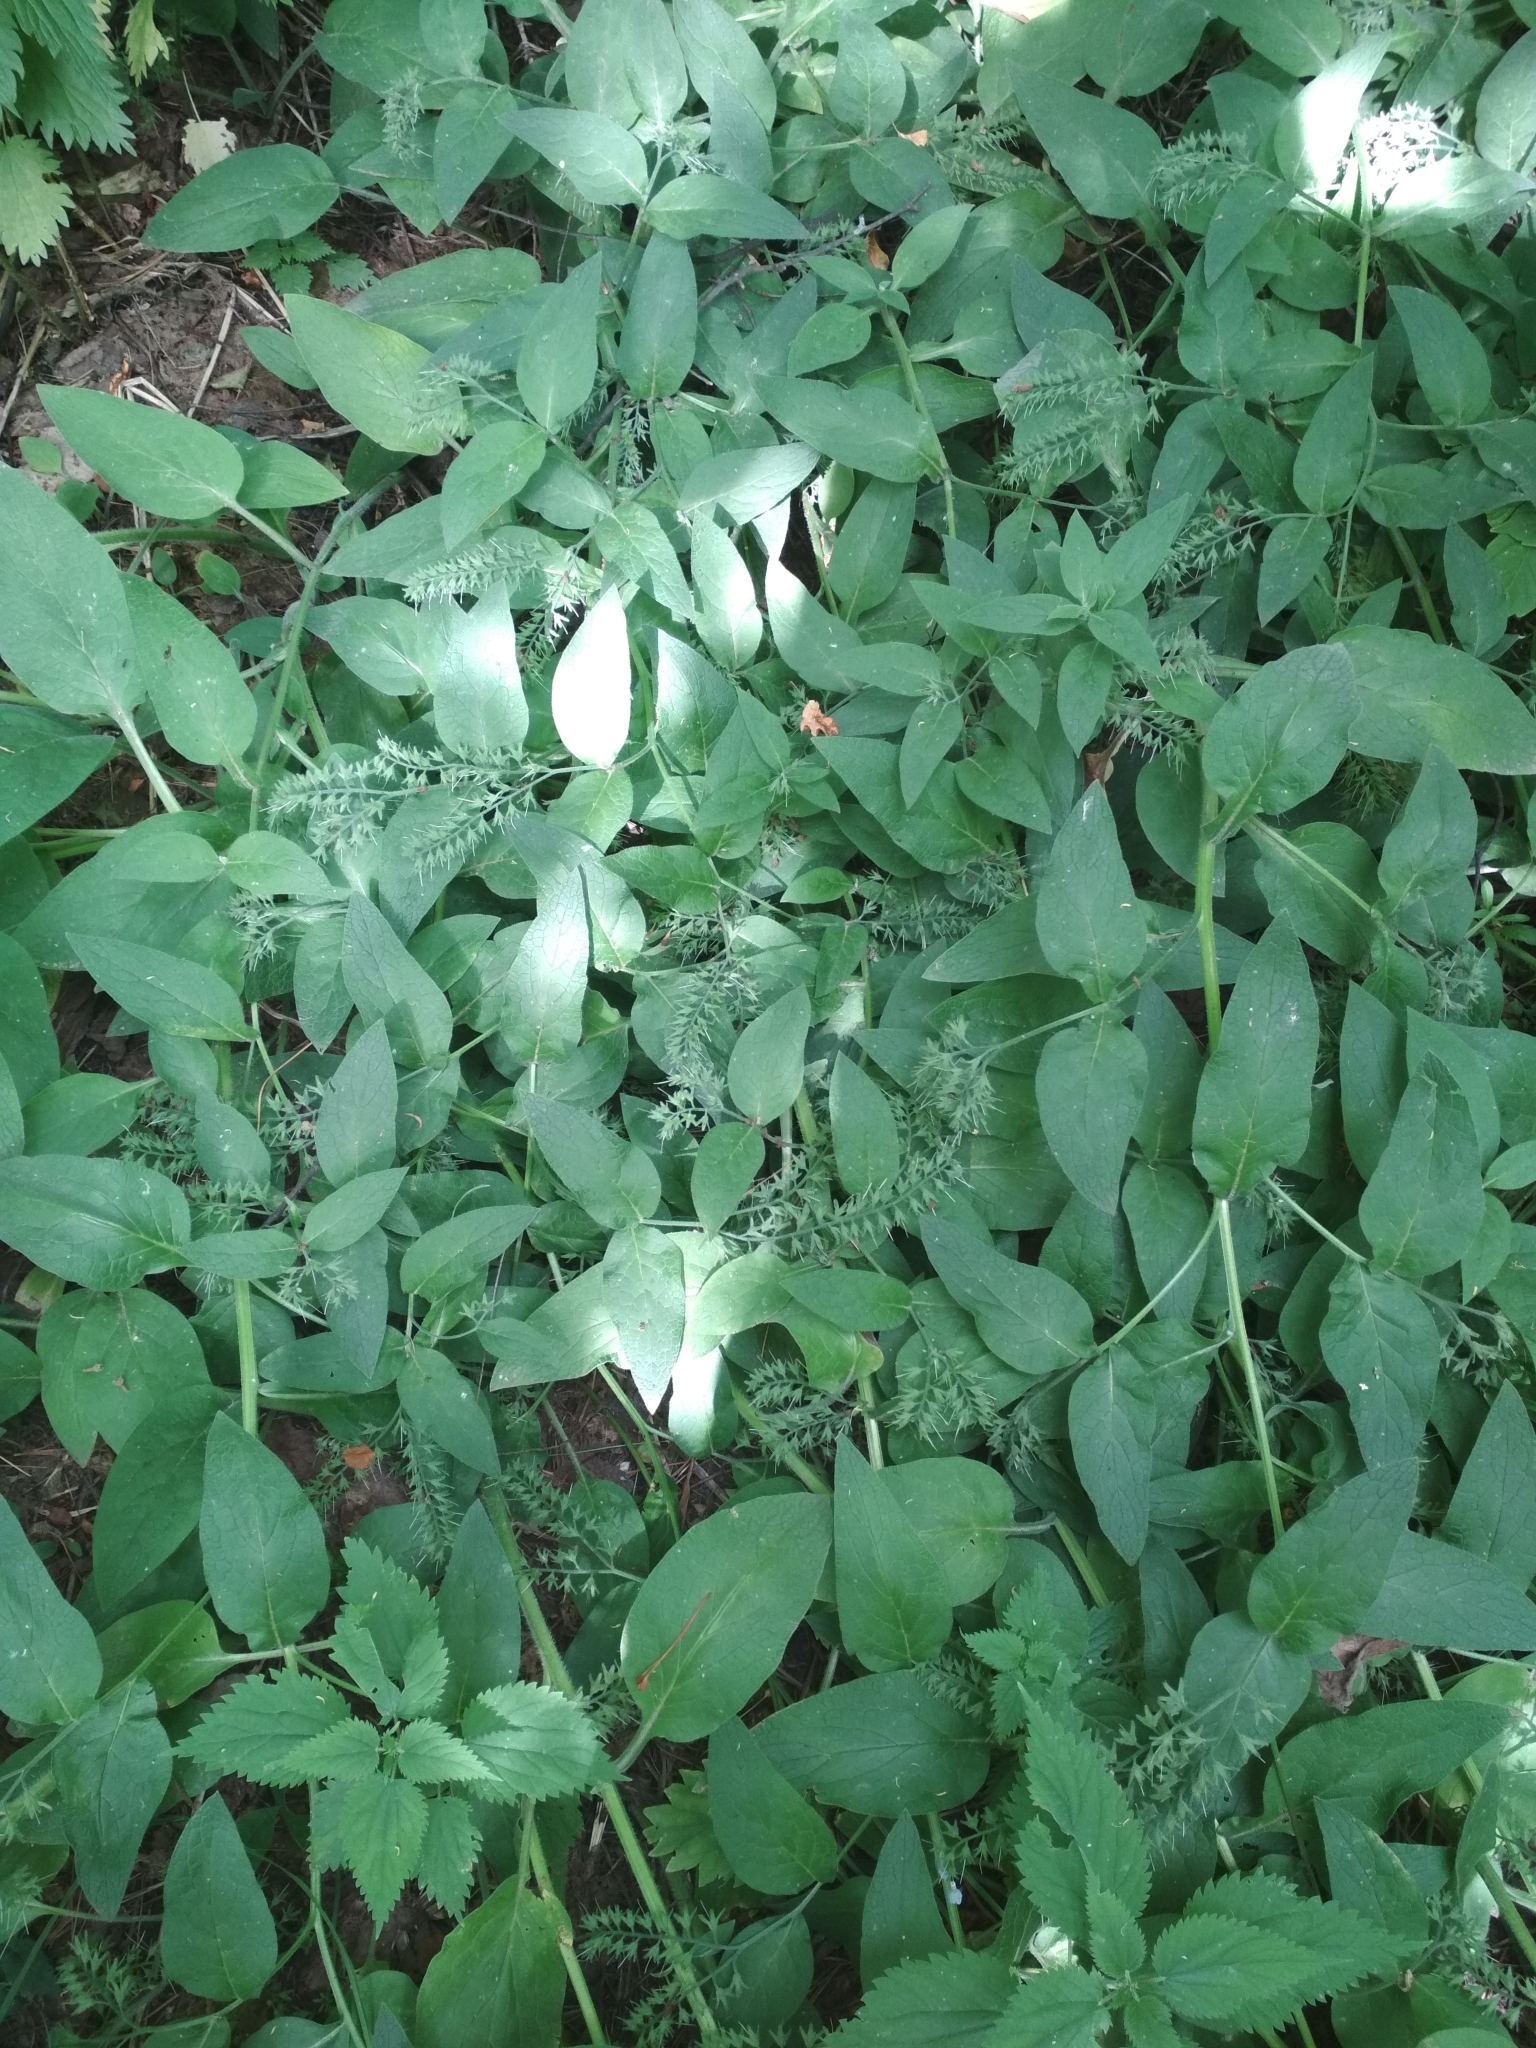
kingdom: Plantae
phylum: Tracheophyta
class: Magnoliopsida
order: Boraginales
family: Boraginaceae
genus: Symphytum
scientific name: Symphytum caucasicum
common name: Caucasian comfrey
